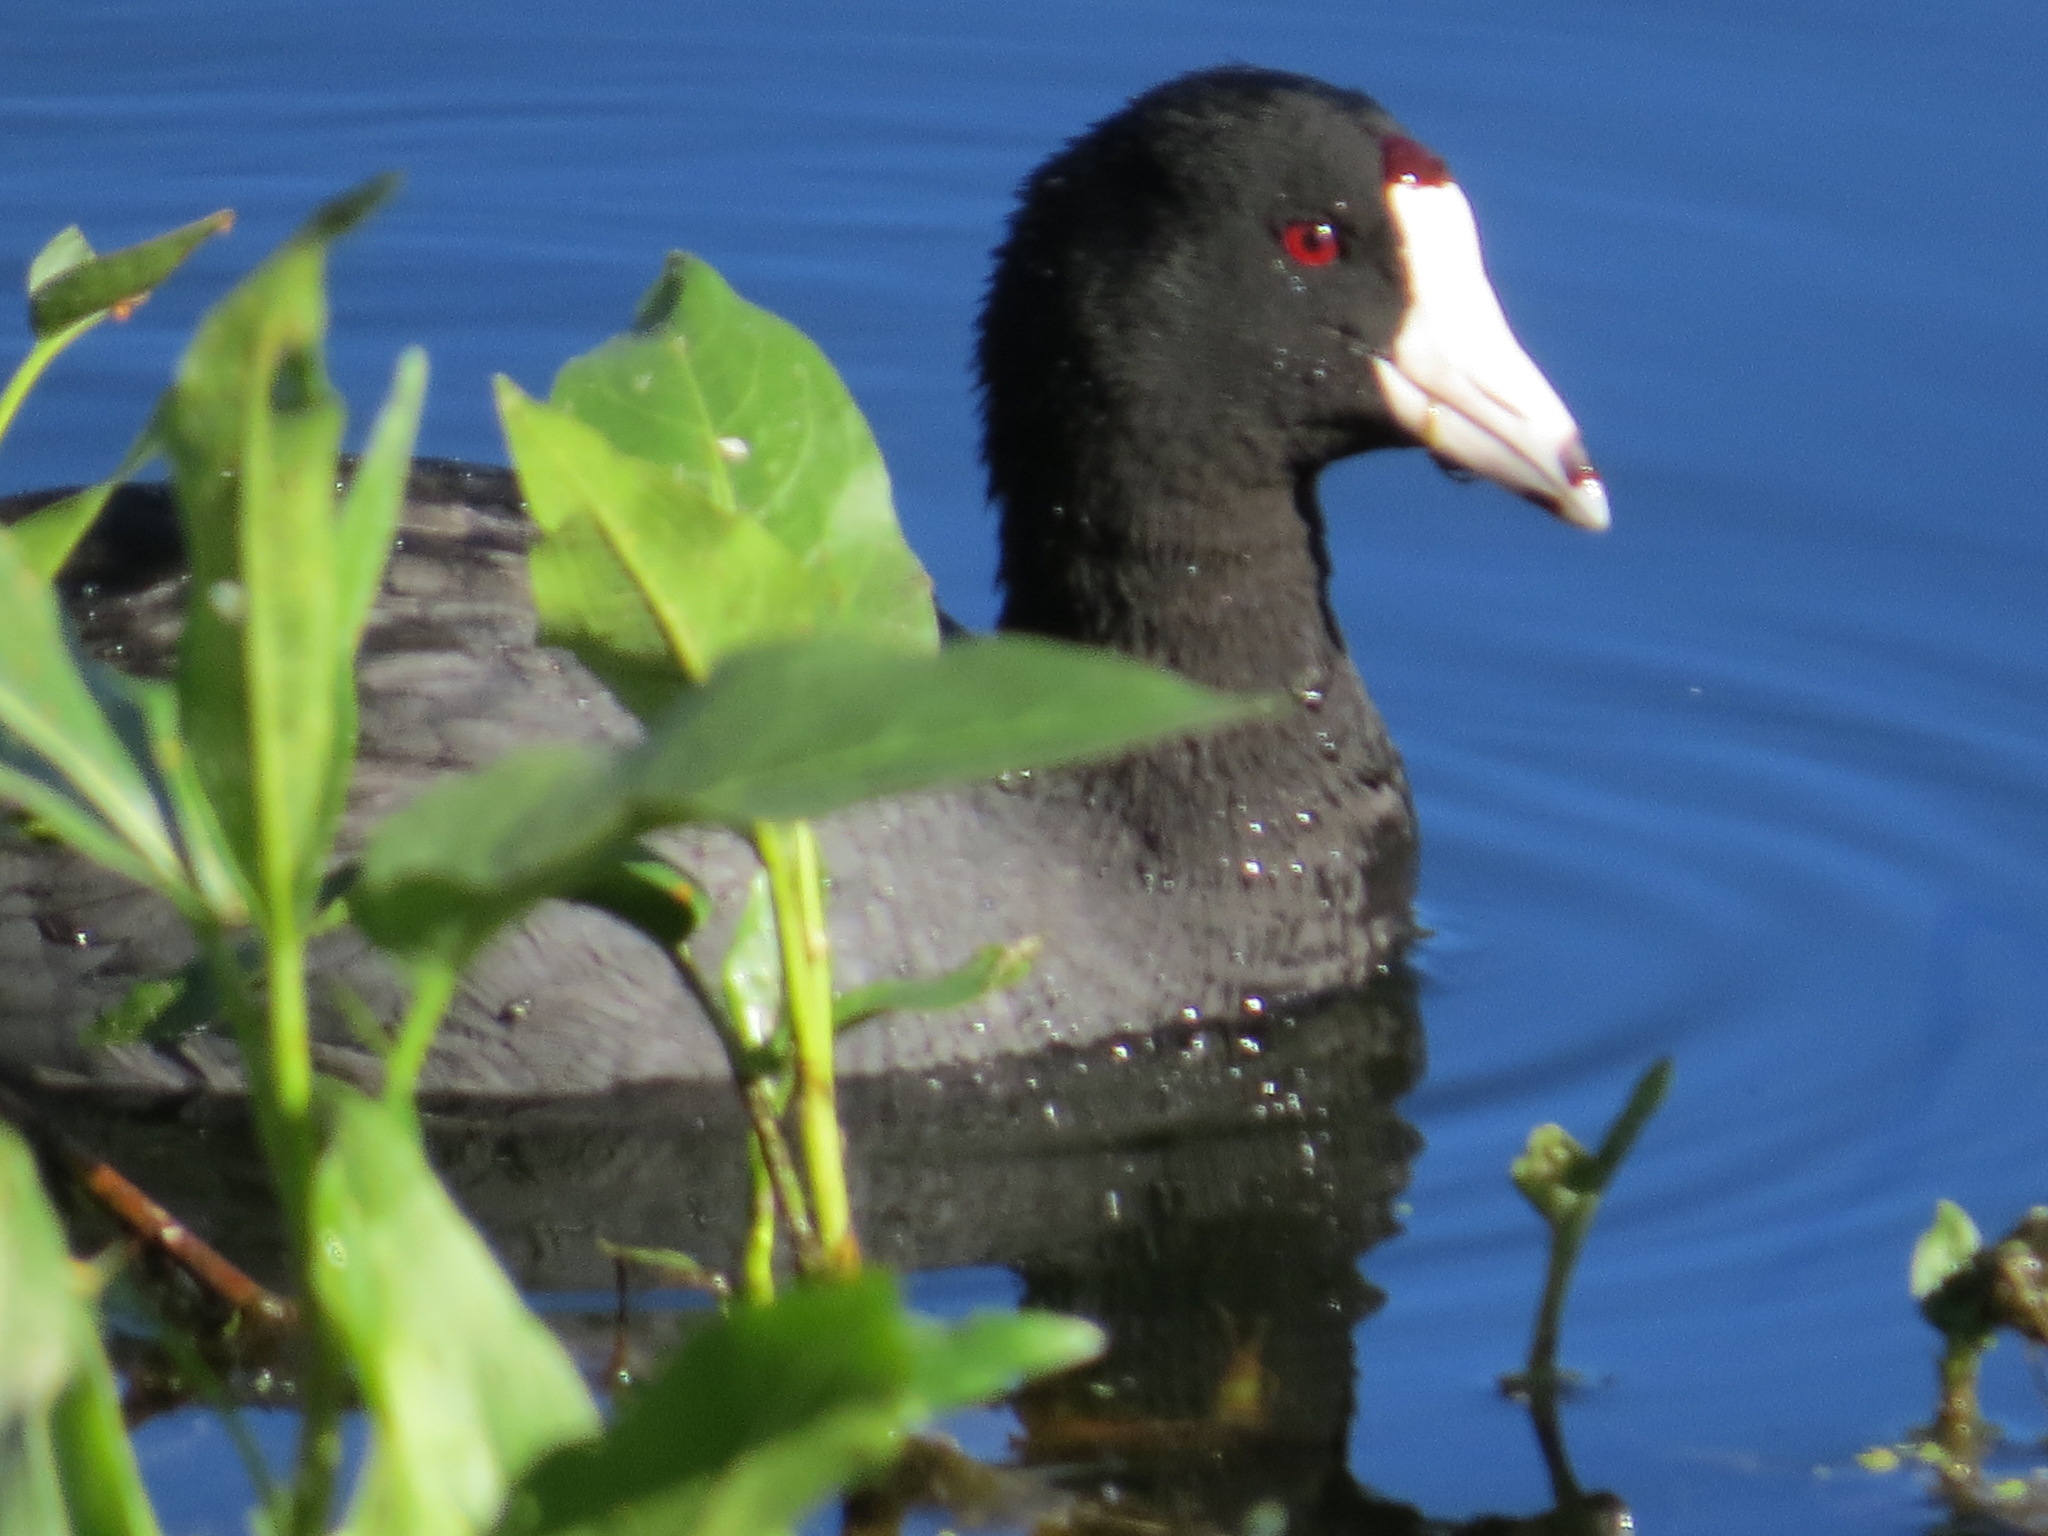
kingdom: Animalia
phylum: Chordata
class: Aves
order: Gruiformes
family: Rallidae
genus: Fulica
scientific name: Fulica americana
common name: American coot
